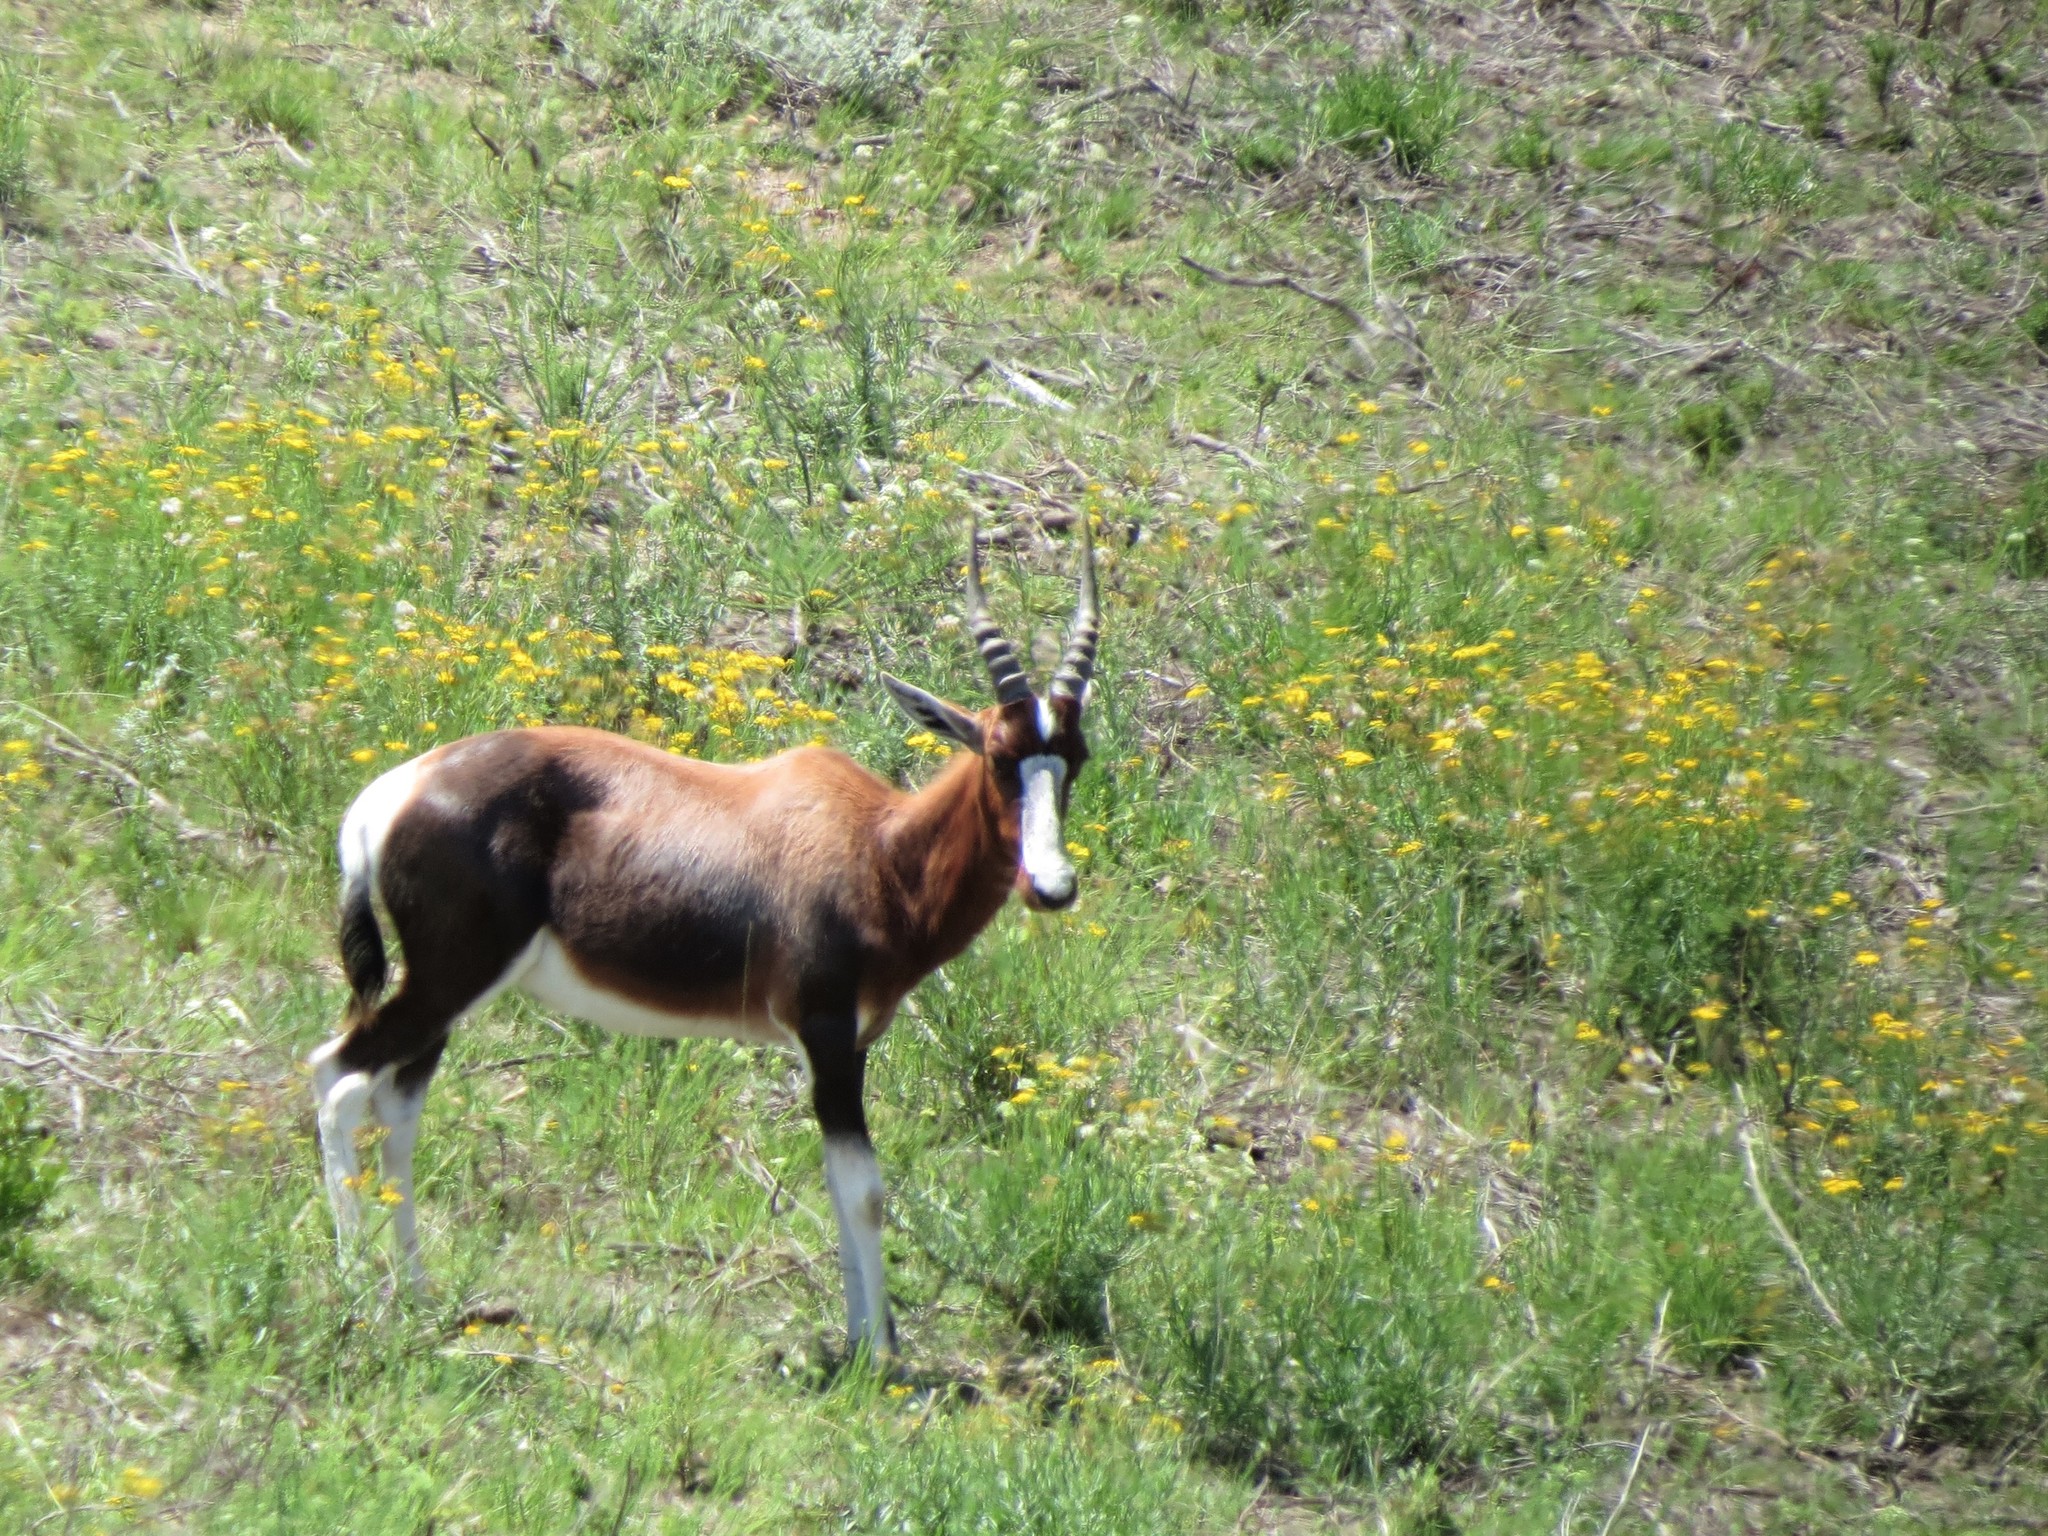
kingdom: Animalia
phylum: Chordata
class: Mammalia
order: Artiodactyla
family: Bovidae
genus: Damaliscus
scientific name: Damaliscus pygargus
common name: Bontebok
